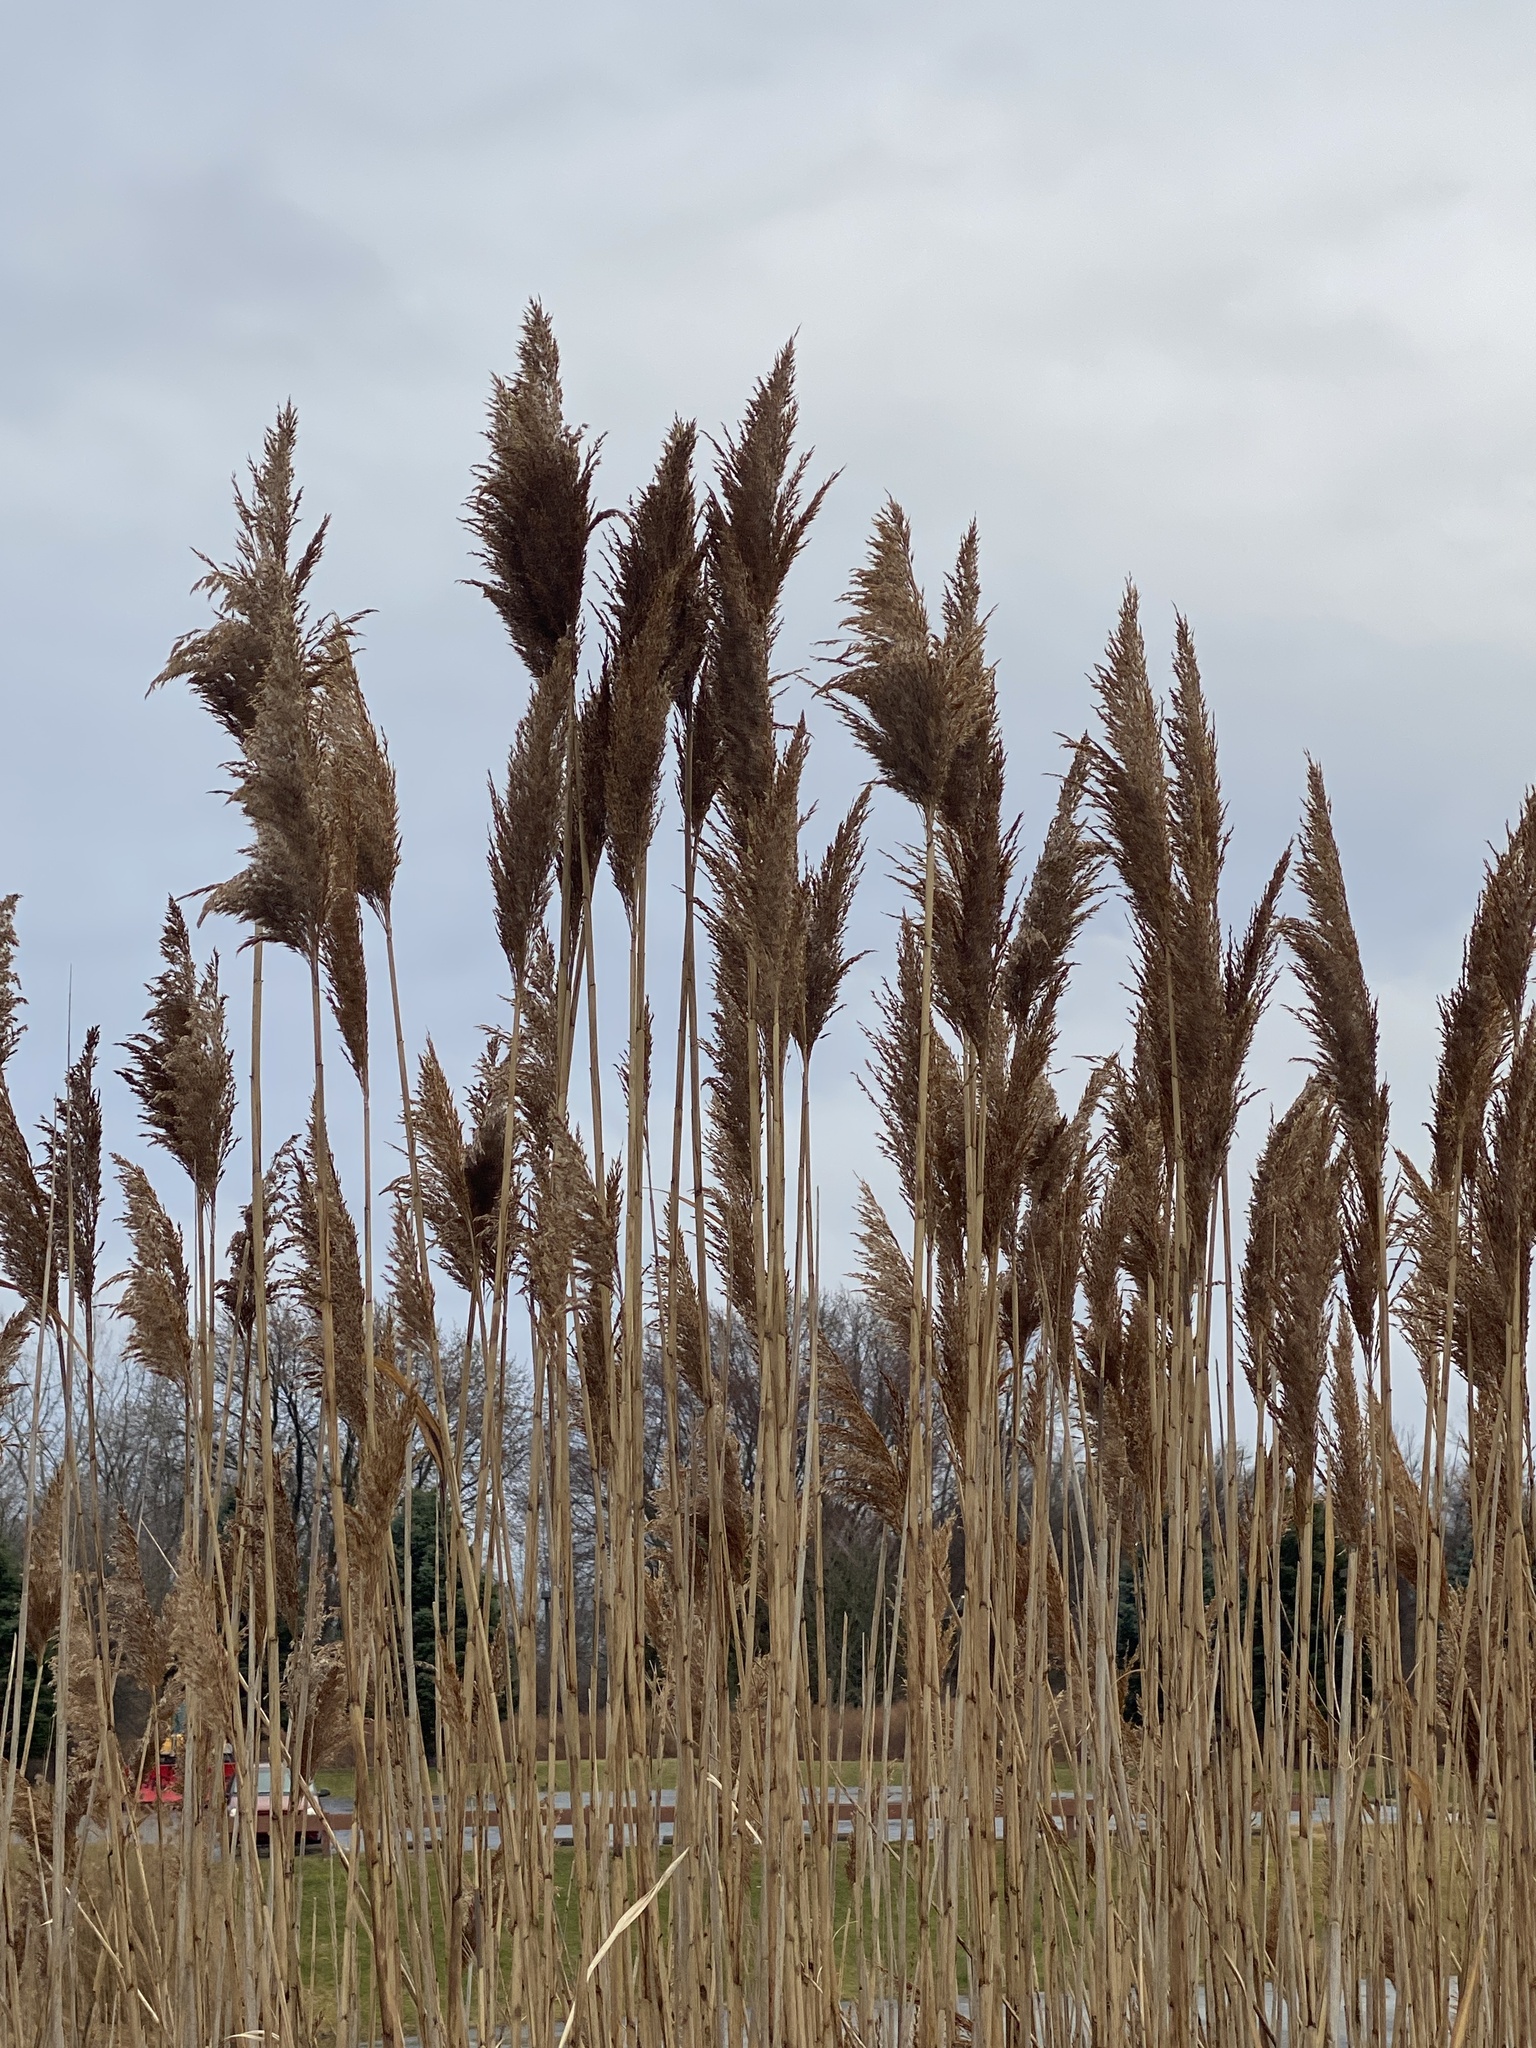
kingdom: Plantae
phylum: Tracheophyta
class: Liliopsida
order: Poales
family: Poaceae
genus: Phragmites
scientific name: Phragmites australis
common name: Common reed
